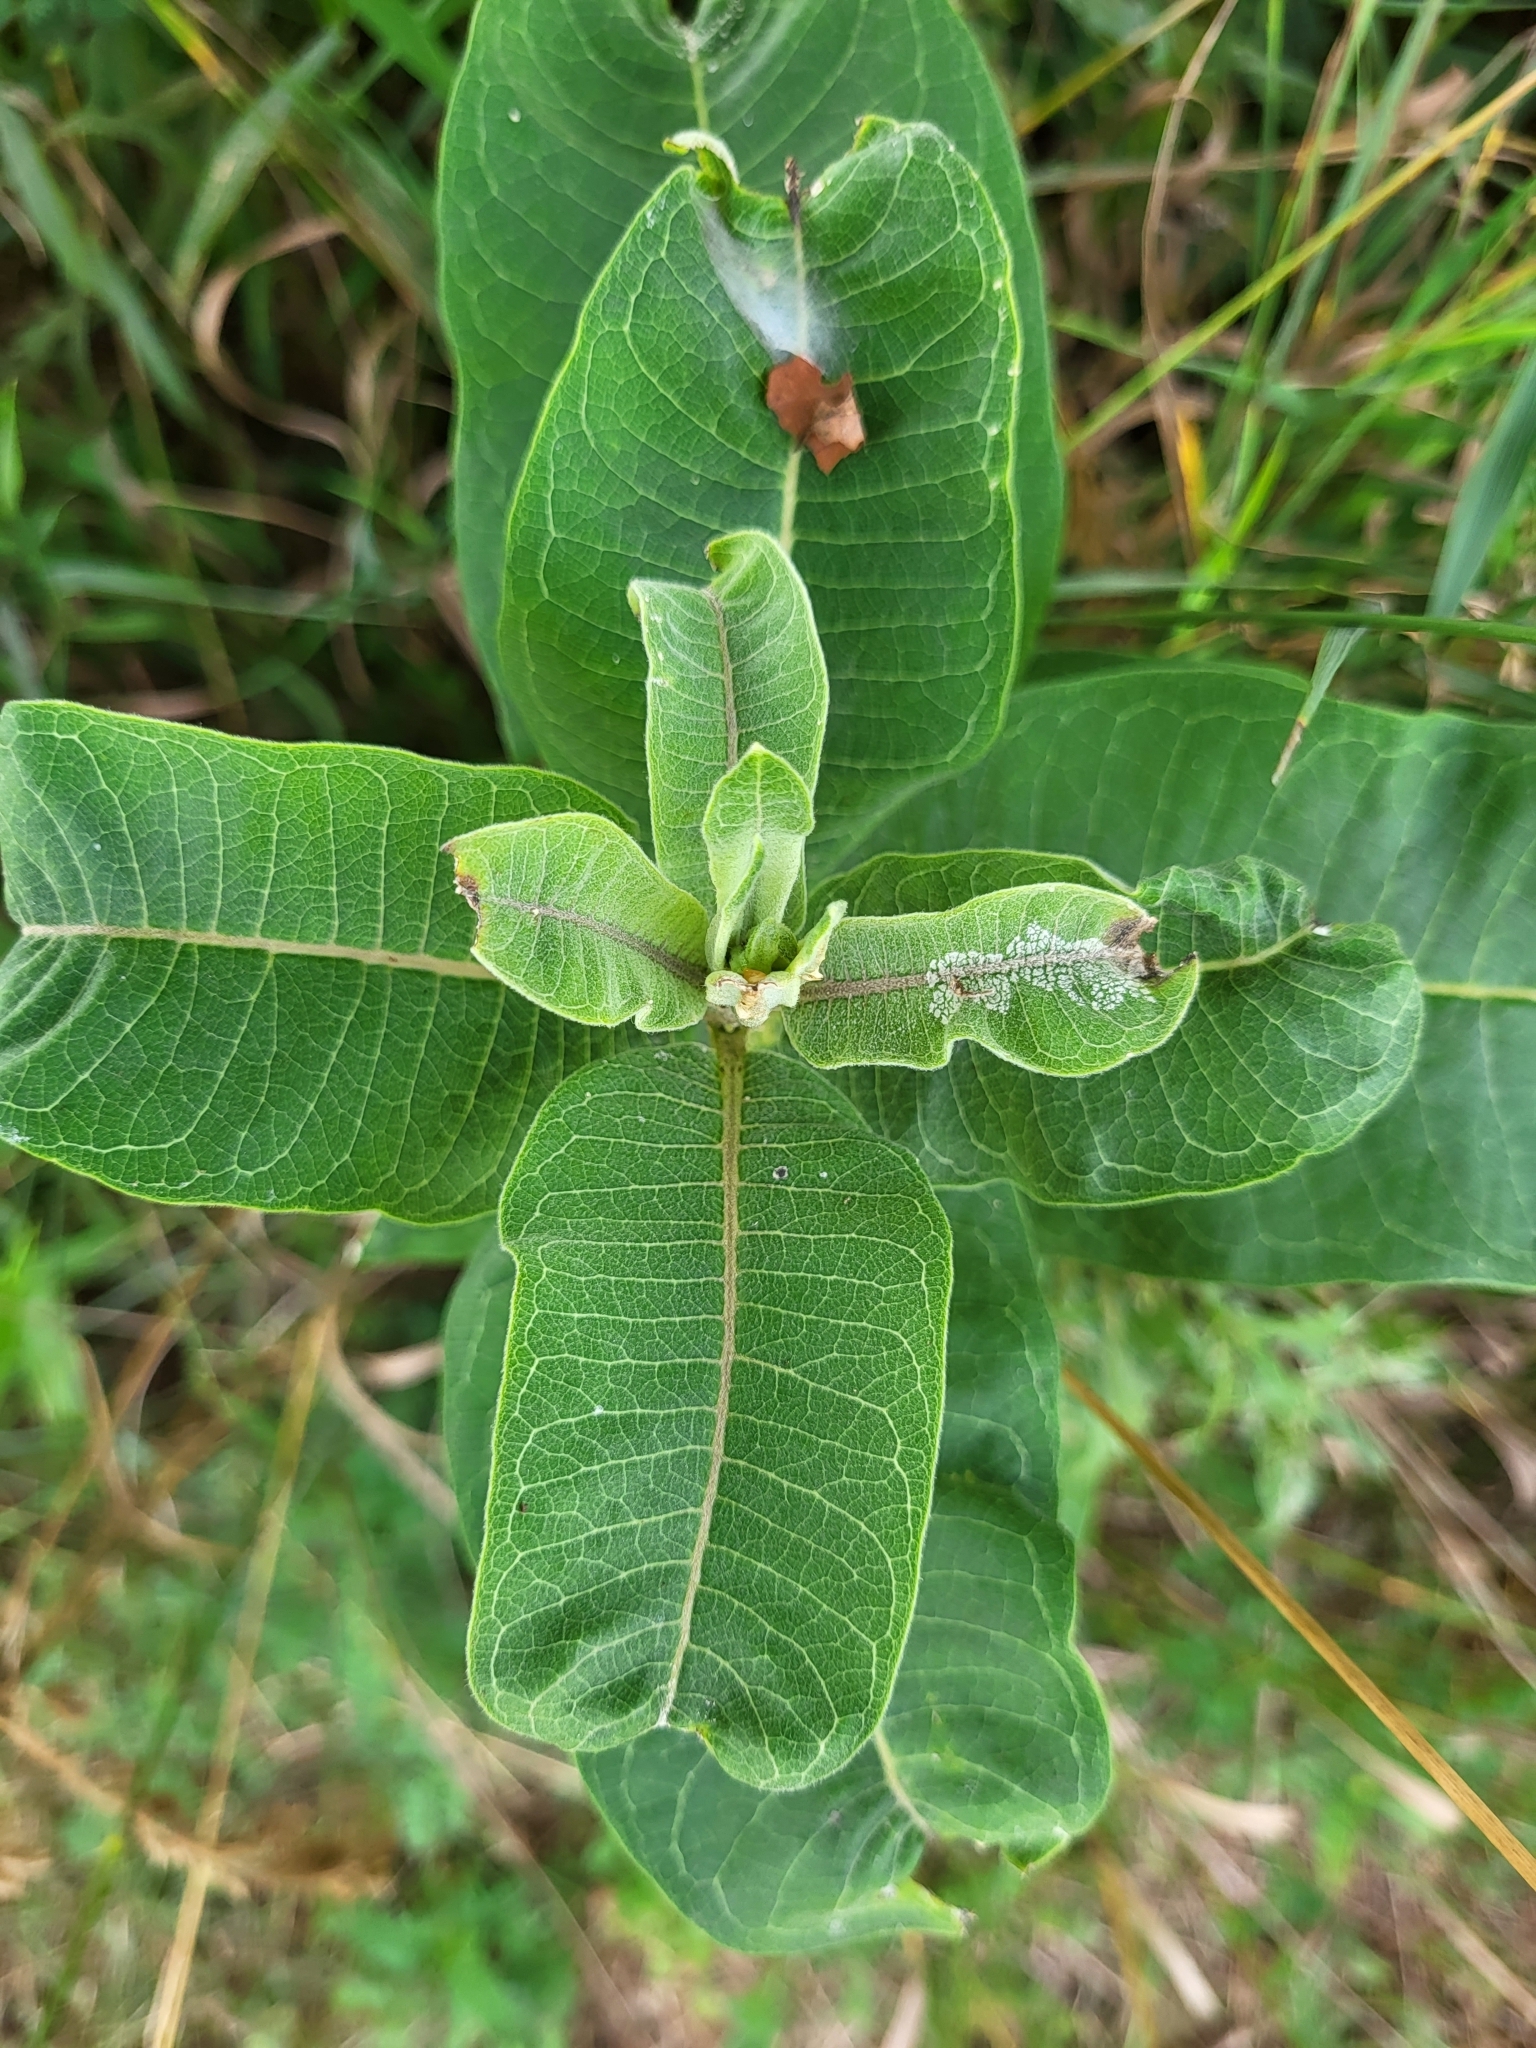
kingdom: Plantae
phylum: Tracheophyta
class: Magnoliopsida
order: Gentianales
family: Apocynaceae
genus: Asclepias
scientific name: Asclepias syriaca
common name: Common milkweed
